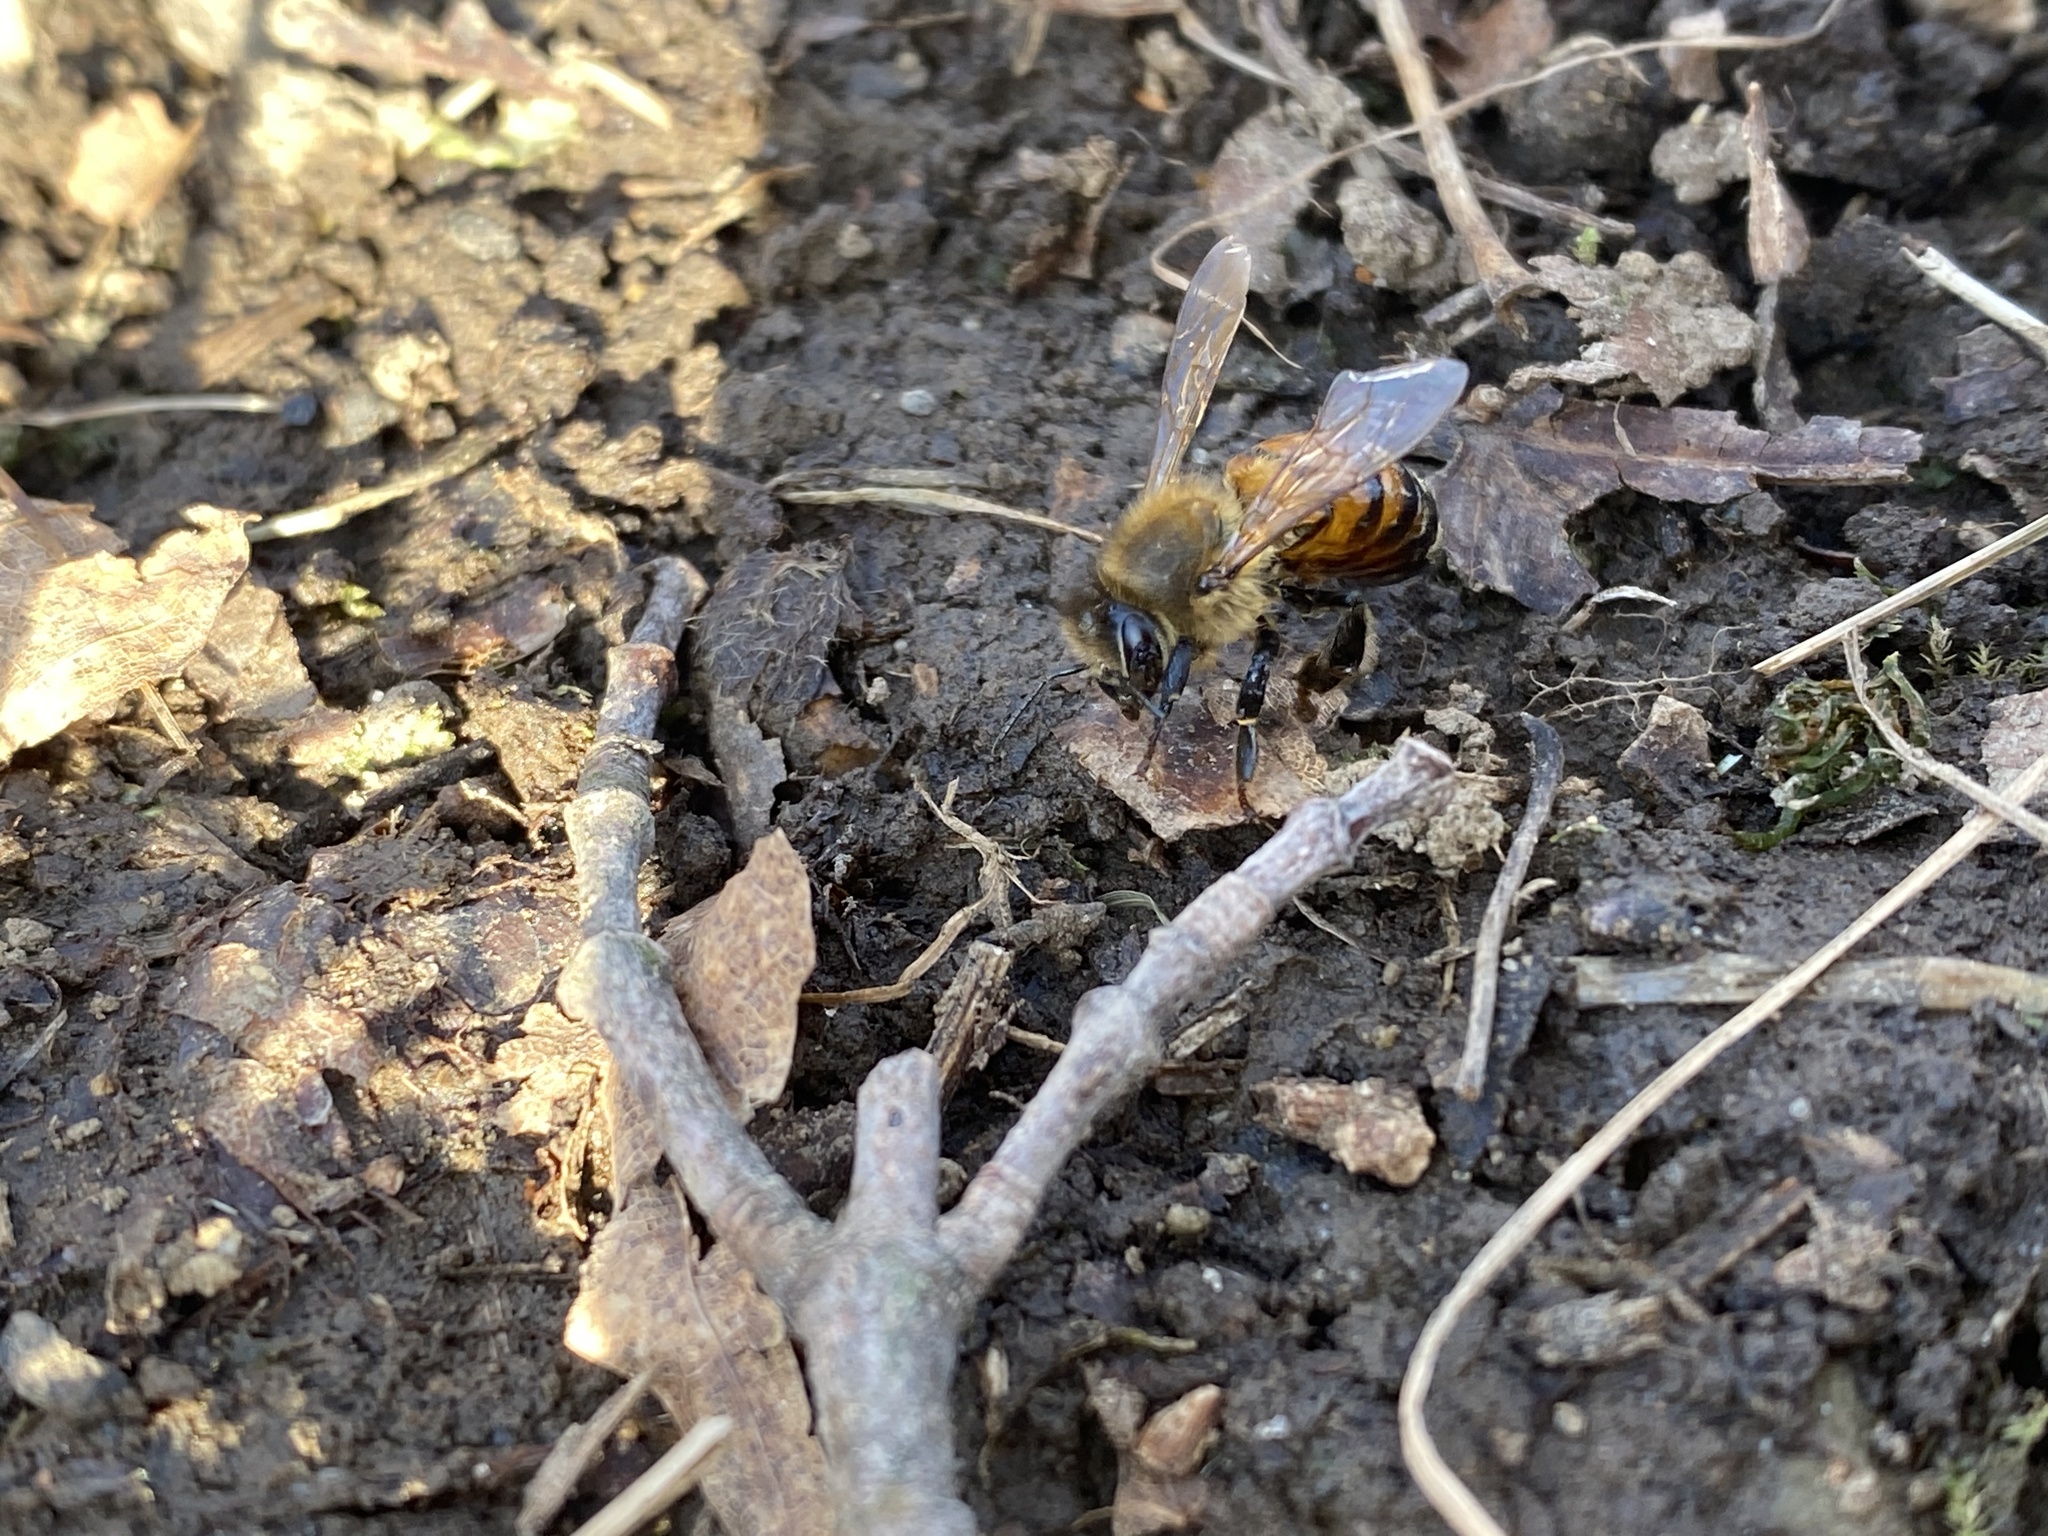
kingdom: Animalia
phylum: Arthropoda
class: Insecta
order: Hymenoptera
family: Apidae
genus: Apis
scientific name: Apis mellifera
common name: Honey bee
